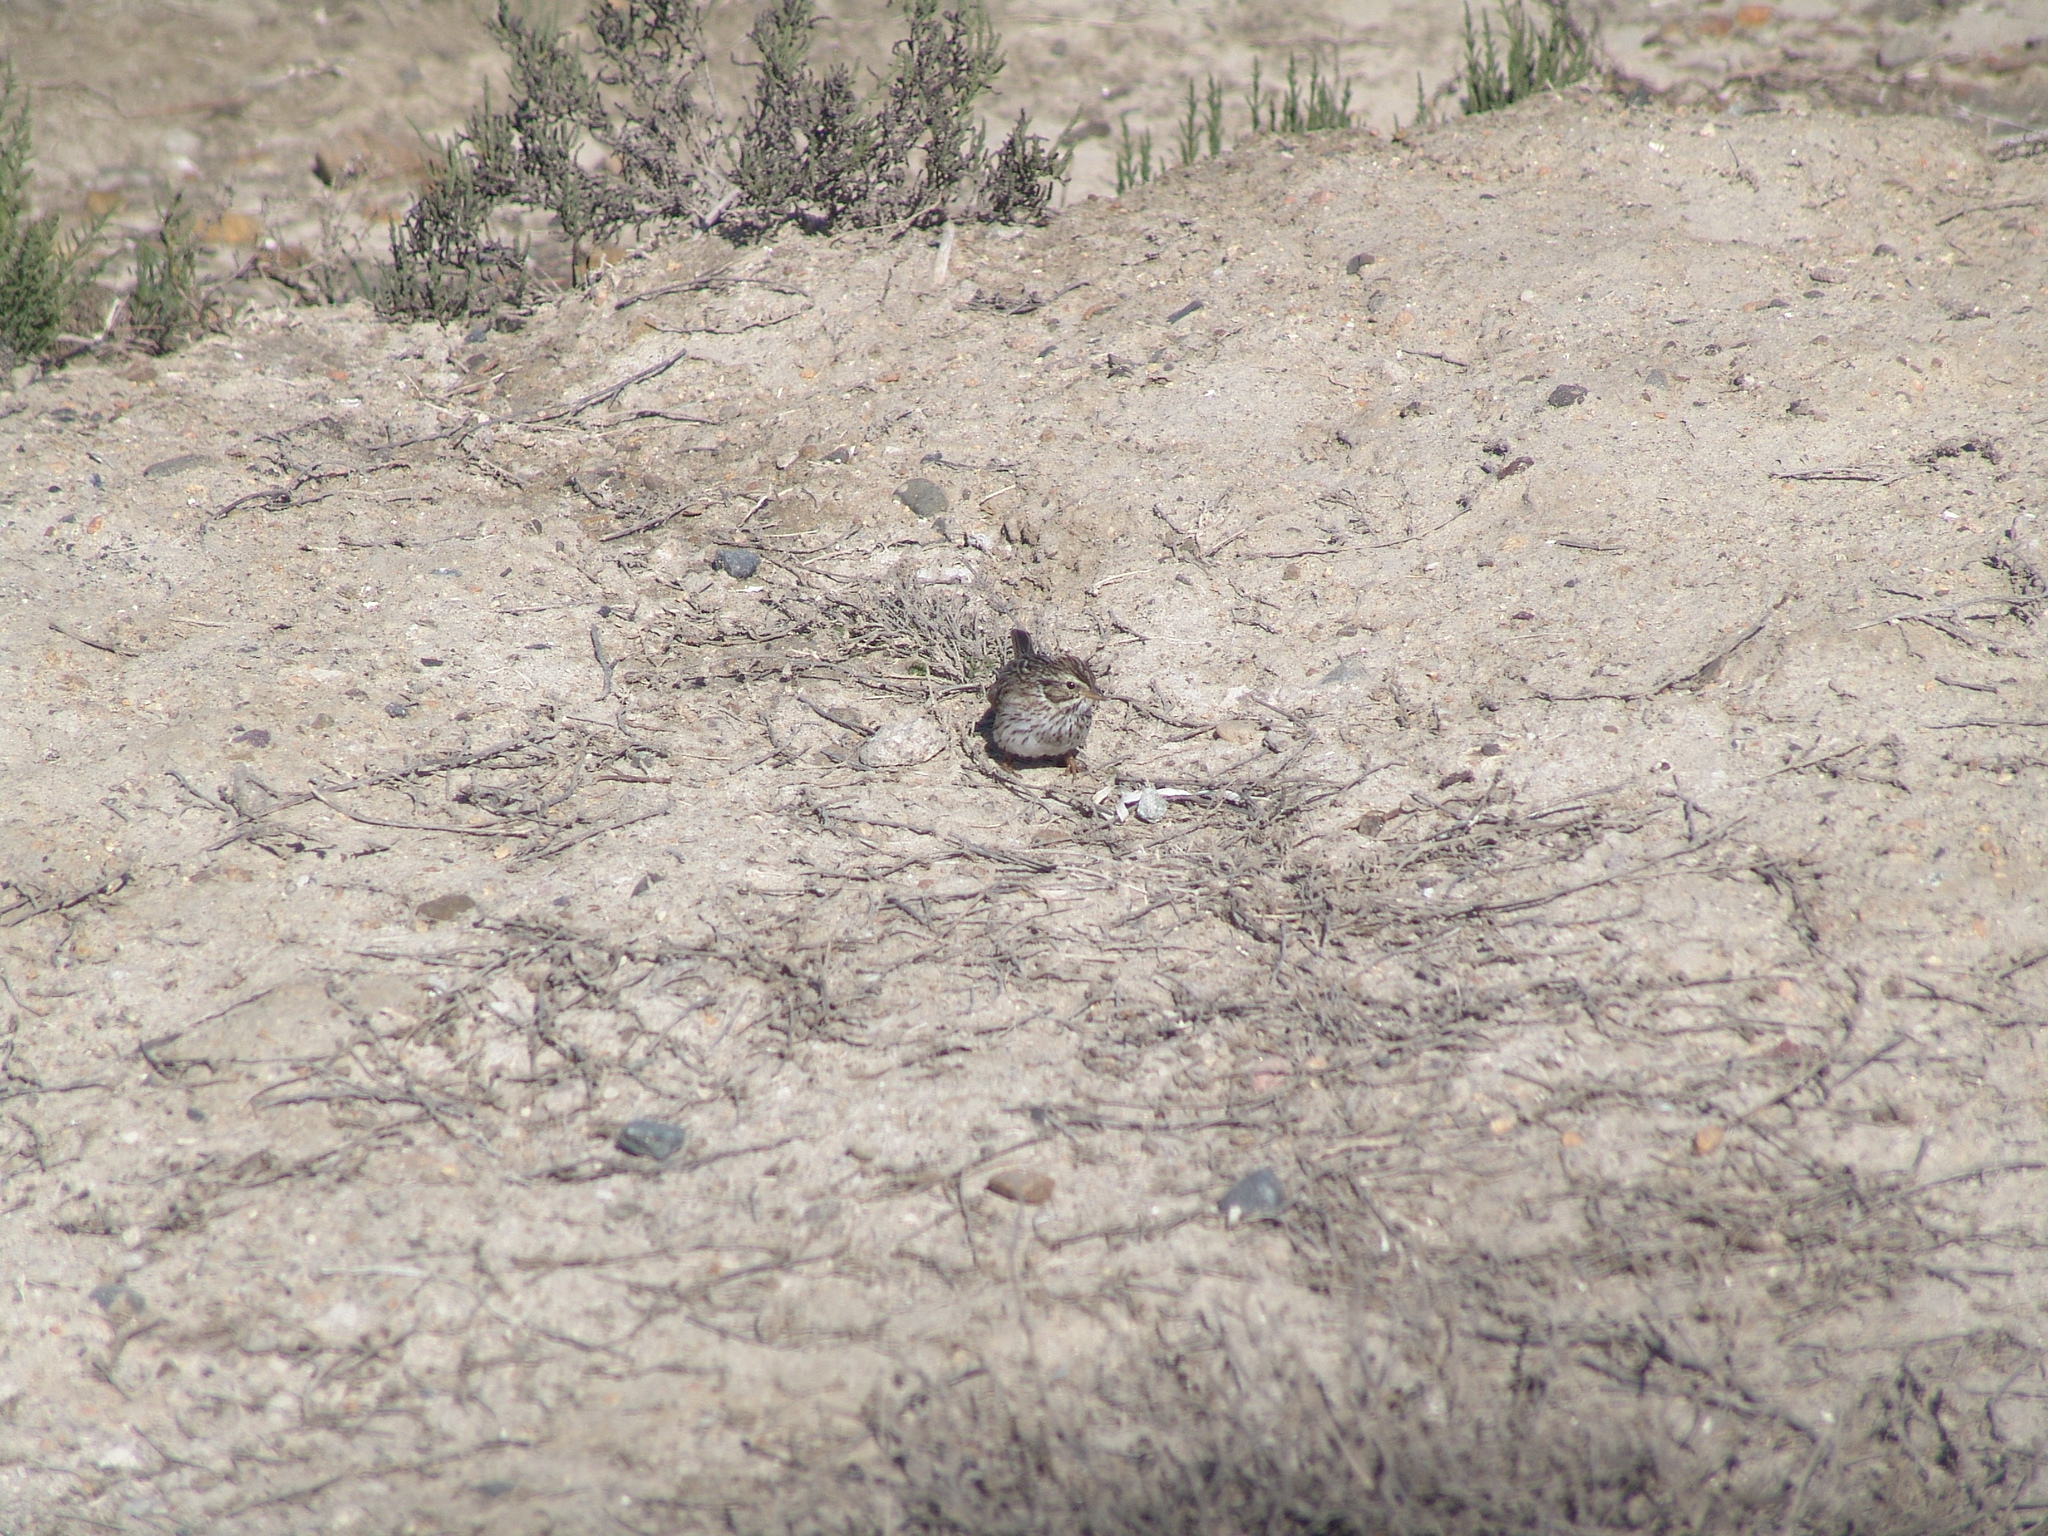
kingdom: Animalia
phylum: Chordata
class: Aves
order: Passeriformes
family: Passerellidae
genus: Passerculus
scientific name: Passerculus sandwichensis
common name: Savannah sparrow
